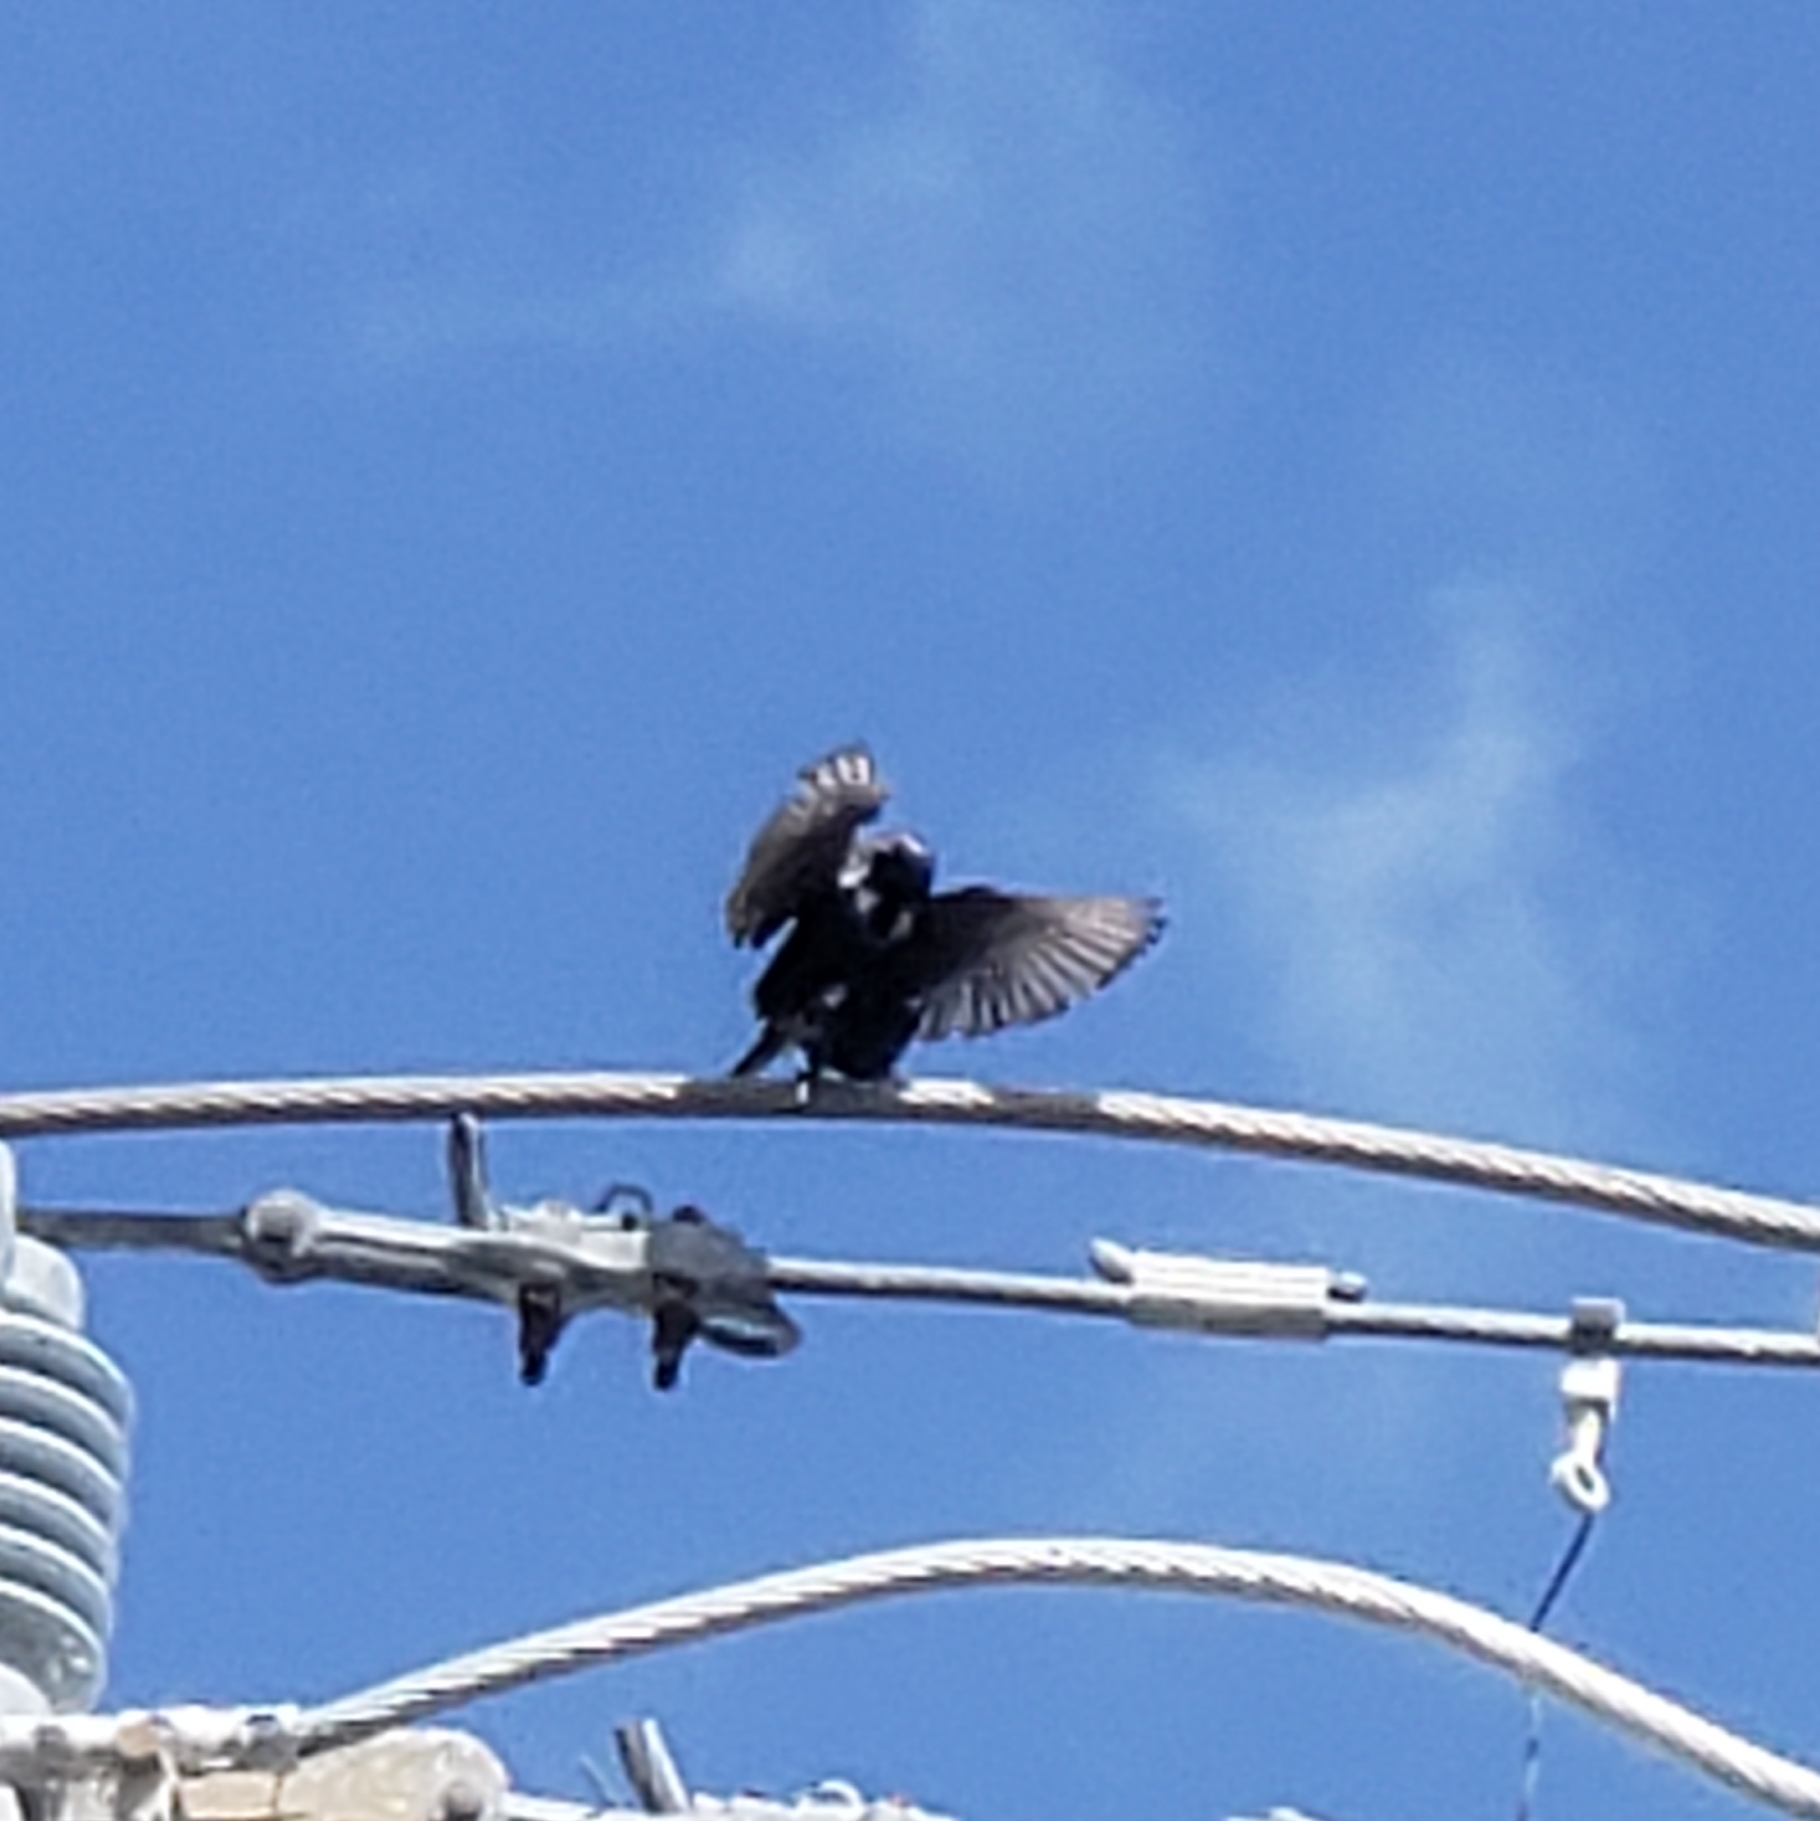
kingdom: Animalia
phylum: Chordata
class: Aves
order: Passeriformes
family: Sturnidae
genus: Sturnus
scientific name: Sturnus vulgaris
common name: Common starling
